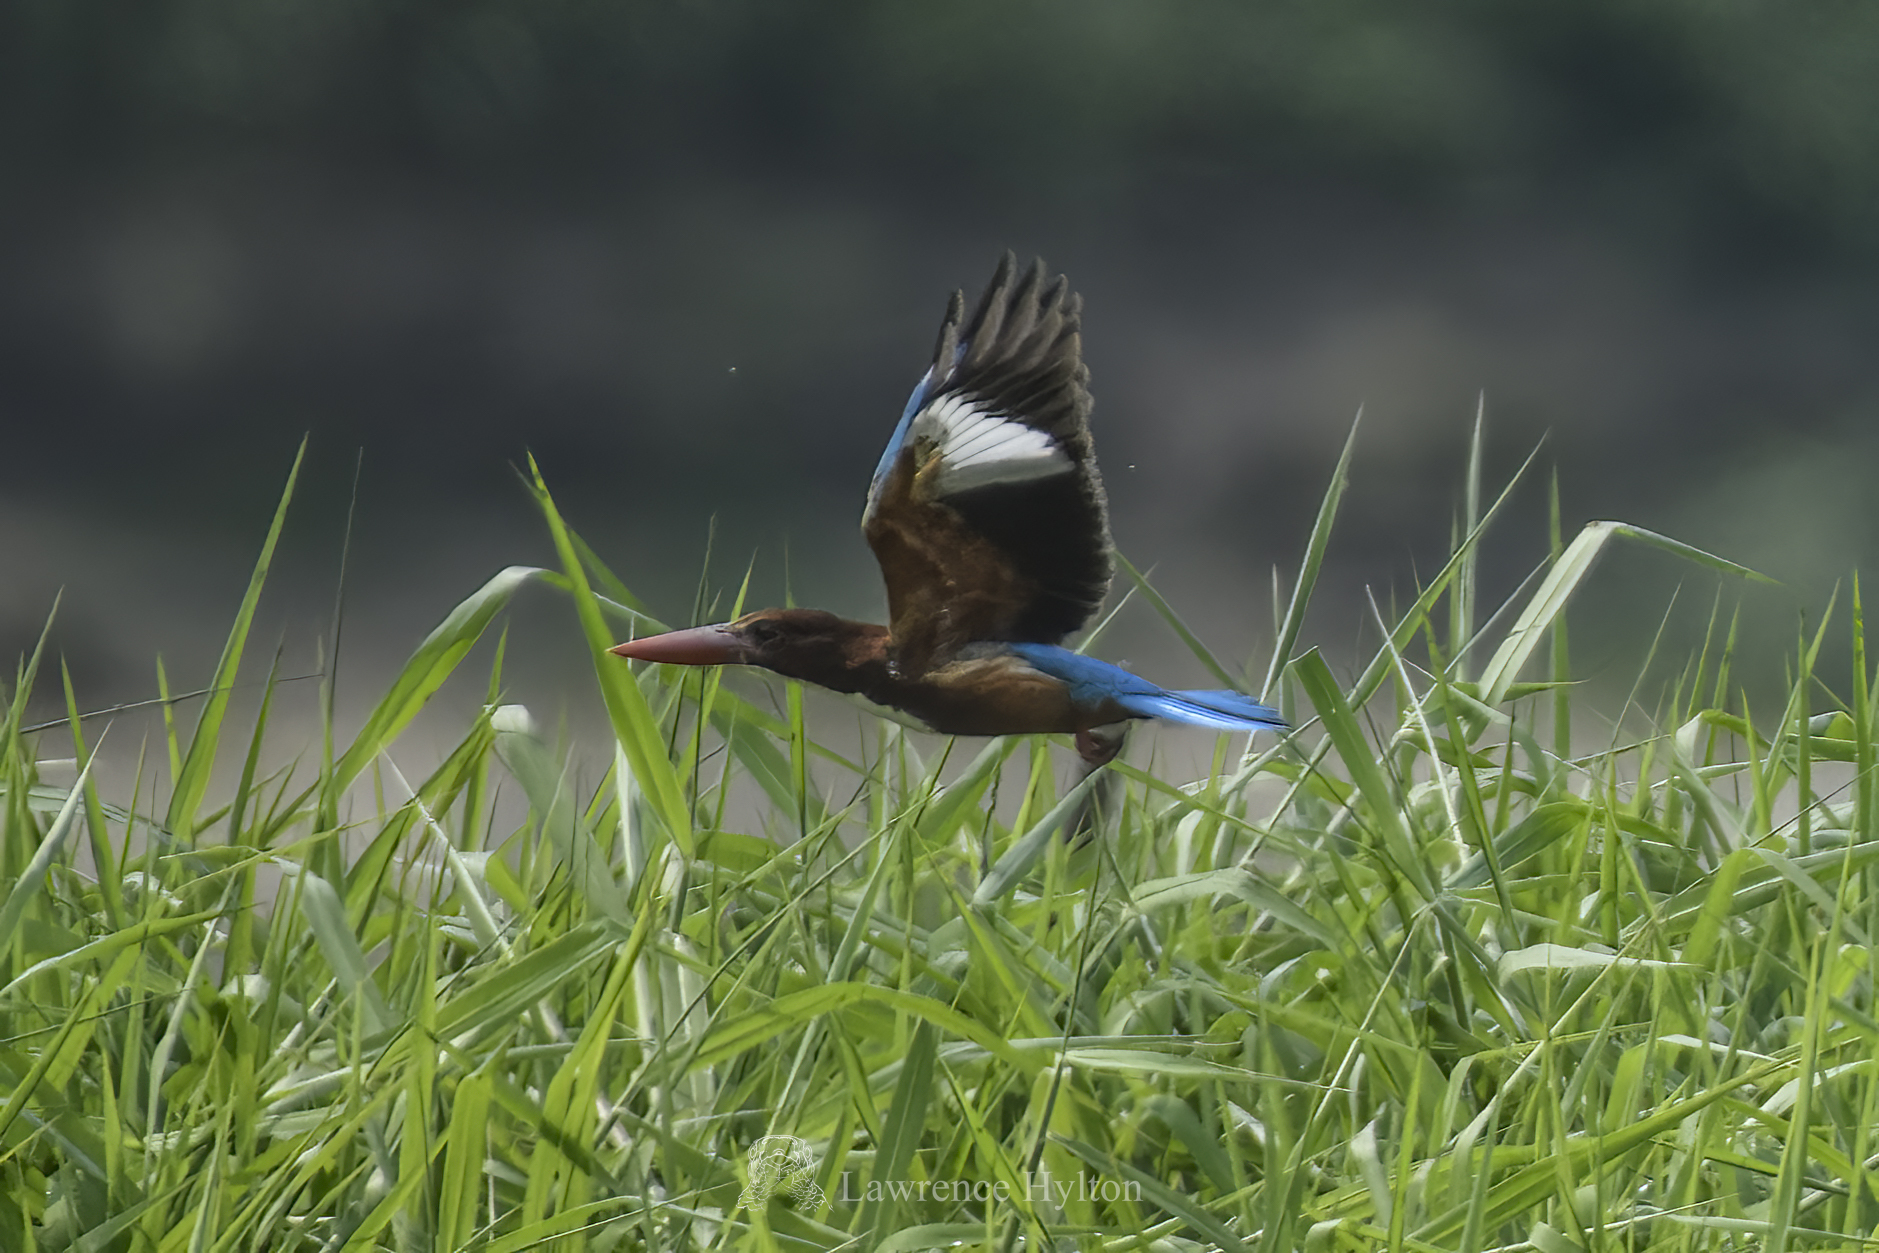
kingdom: Animalia
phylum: Chordata
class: Aves
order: Coraciiformes
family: Alcedinidae
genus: Halcyon
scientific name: Halcyon smyrnensis
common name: White-throated kingfisher
